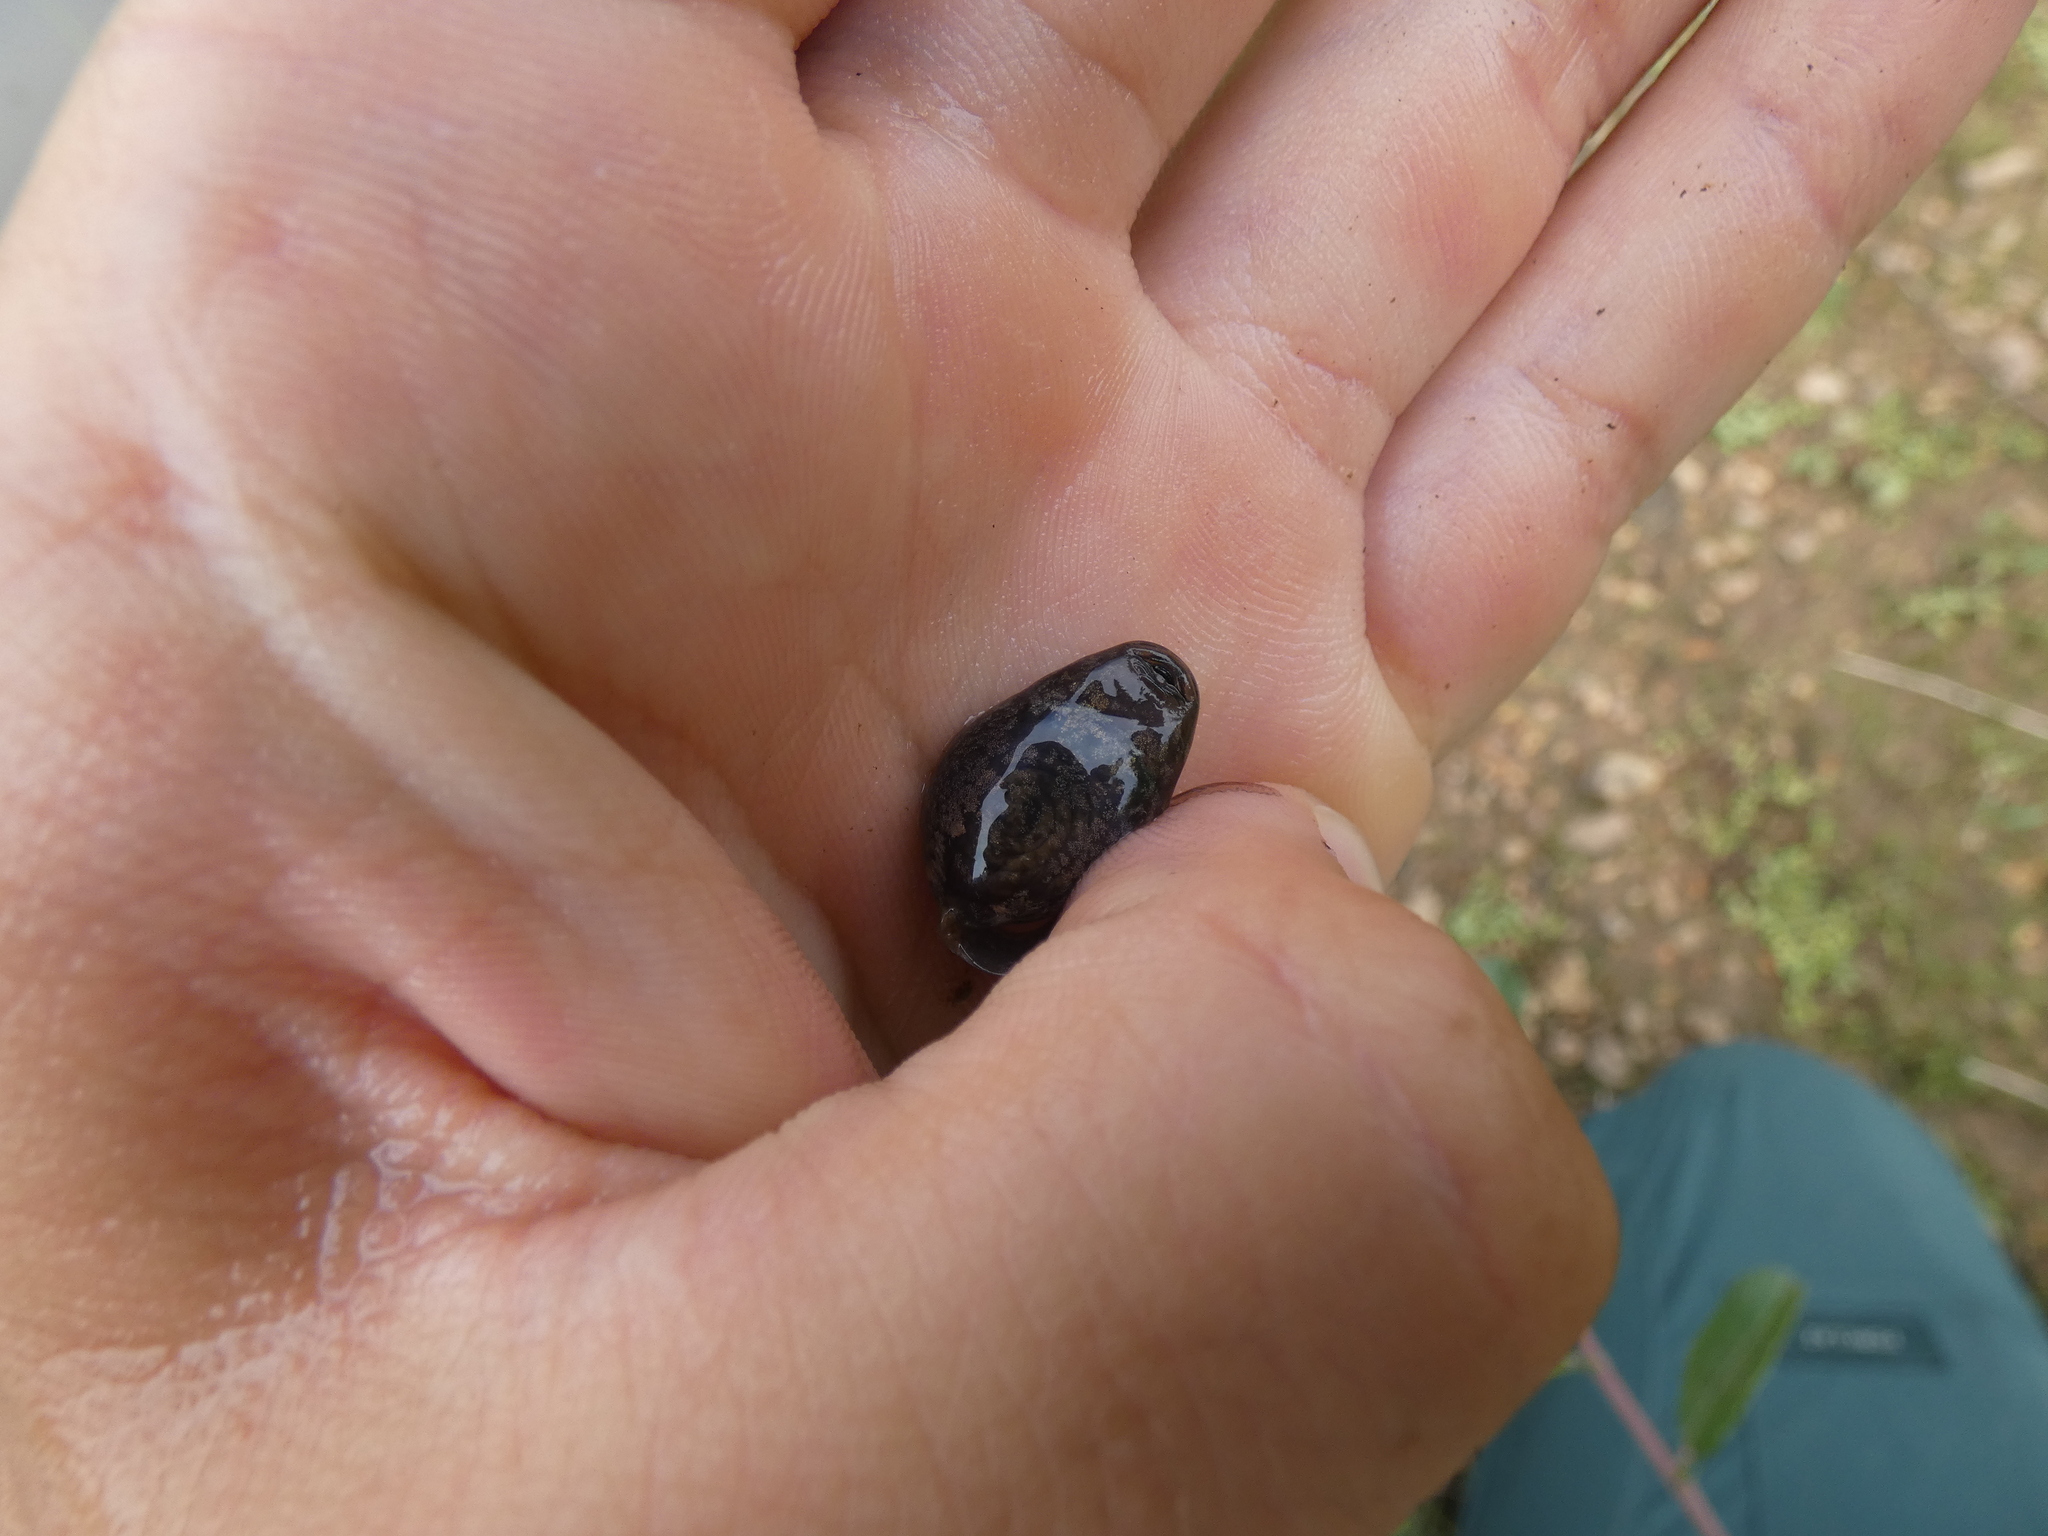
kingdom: Animalia
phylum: Chordata
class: Amphibia
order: Anura
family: Alytidae
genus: Alytes
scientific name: Alytes obstetricans
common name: Midwife toad
